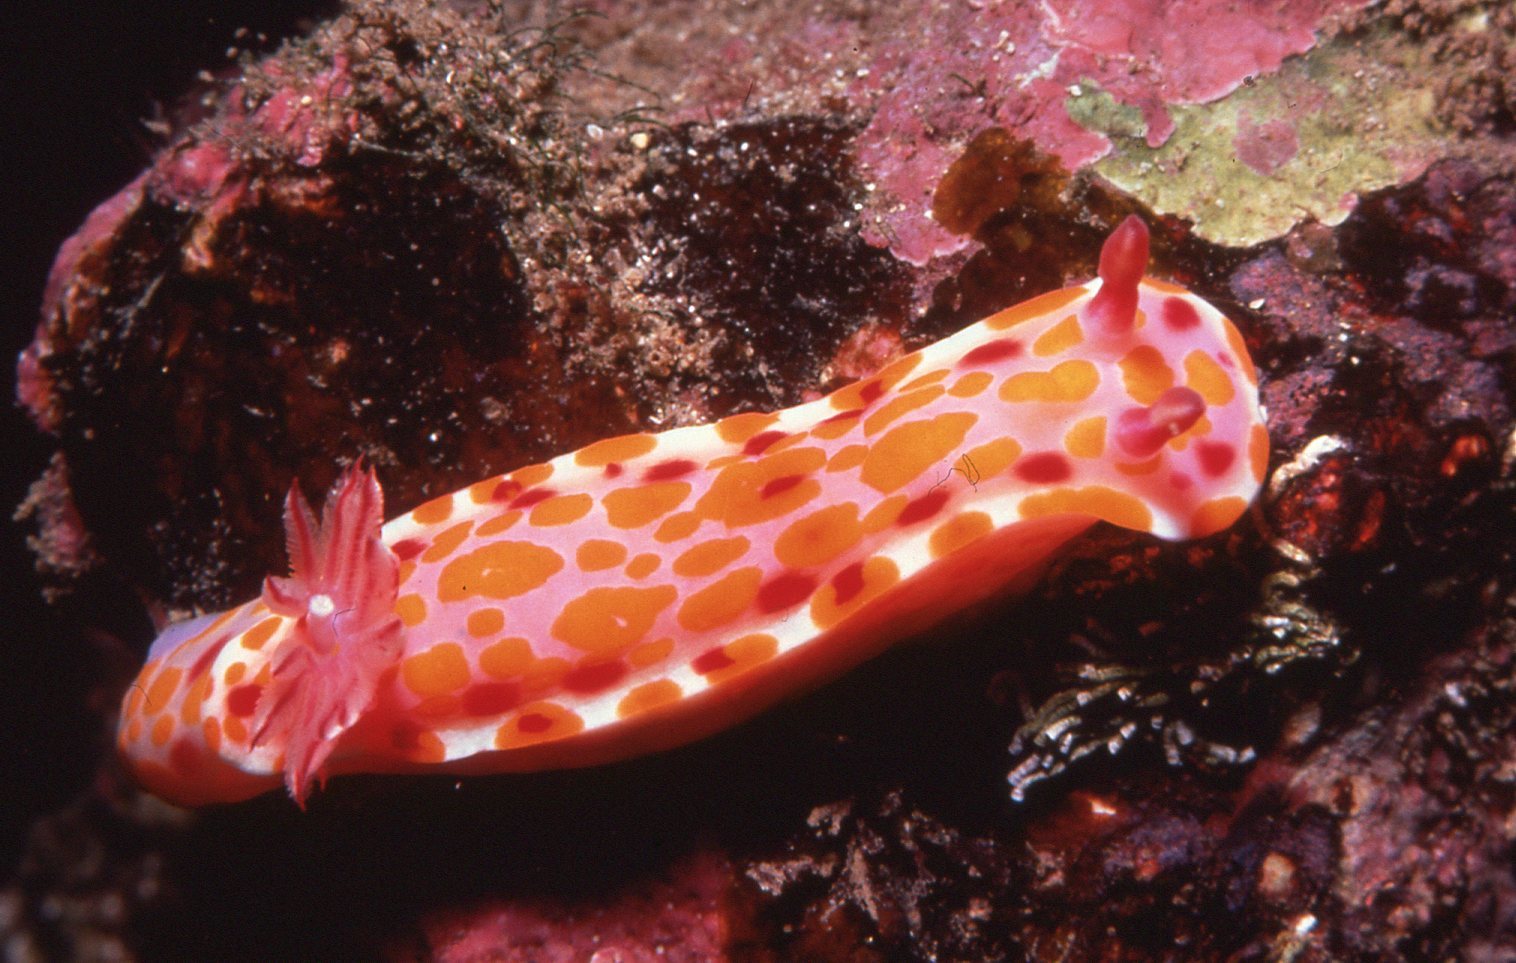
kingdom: Animalia
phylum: Mollusca
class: Gastropoda
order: Nudibranchia
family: Chromodorididae
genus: Ceratosoma
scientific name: Ceratosoma amoenum
